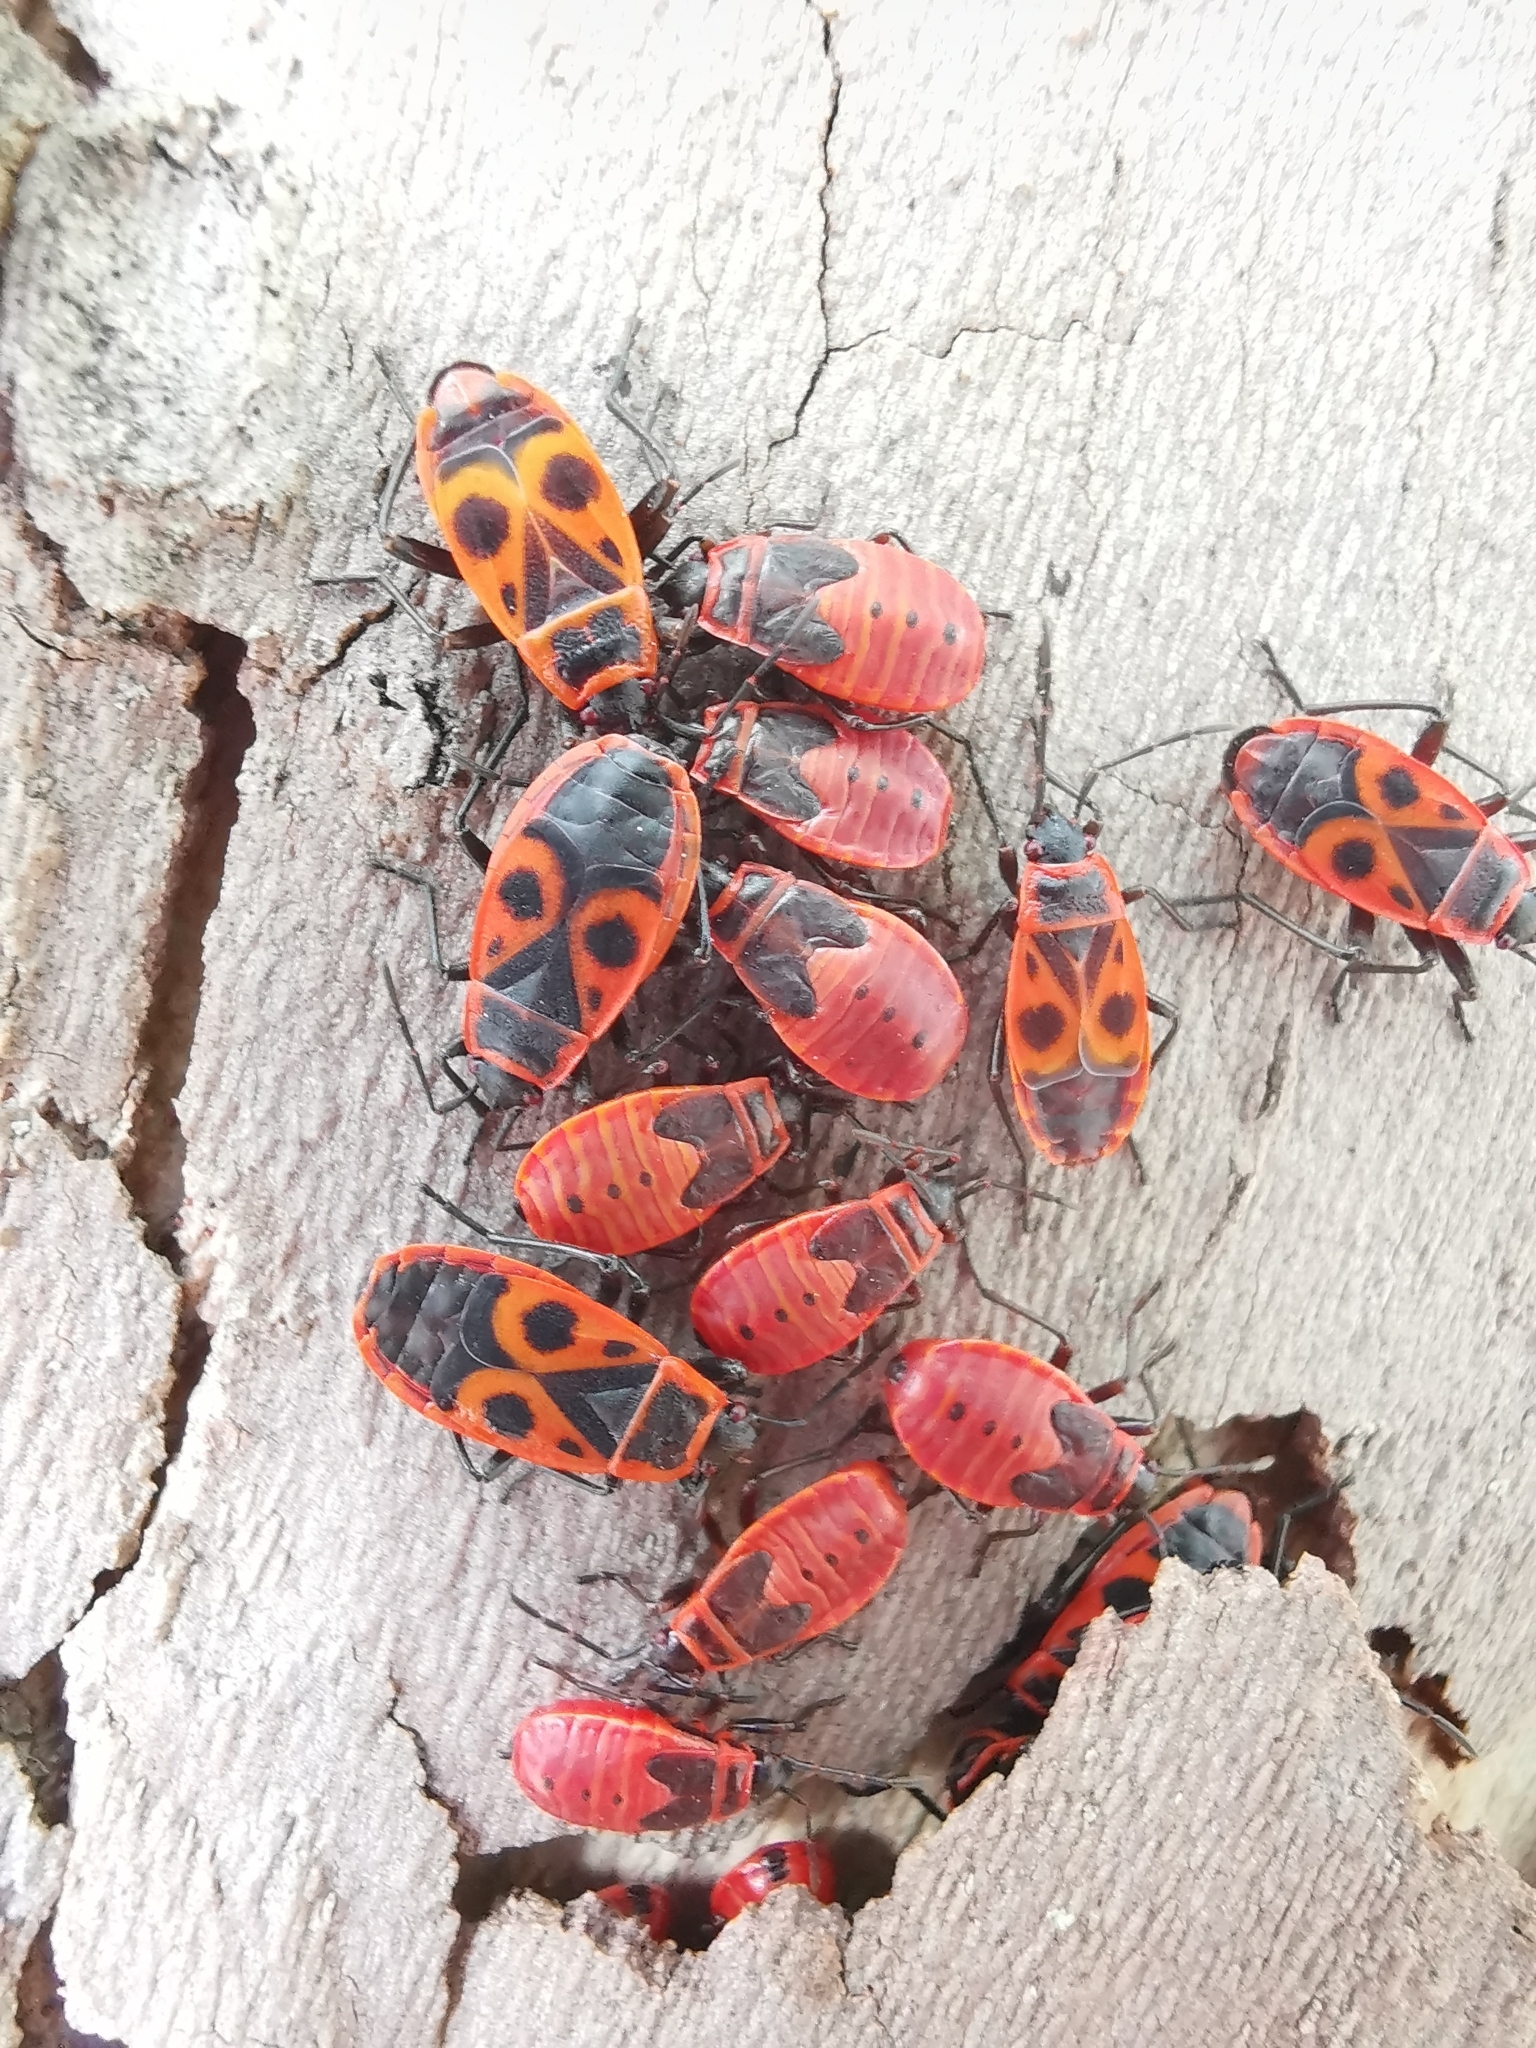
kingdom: Animalia
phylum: Arthropoda
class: Insecta
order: Hemiptera
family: Pyrrhocoridae
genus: Pyrrhocoris
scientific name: Pyrrhocoris apterus
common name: Firebug
